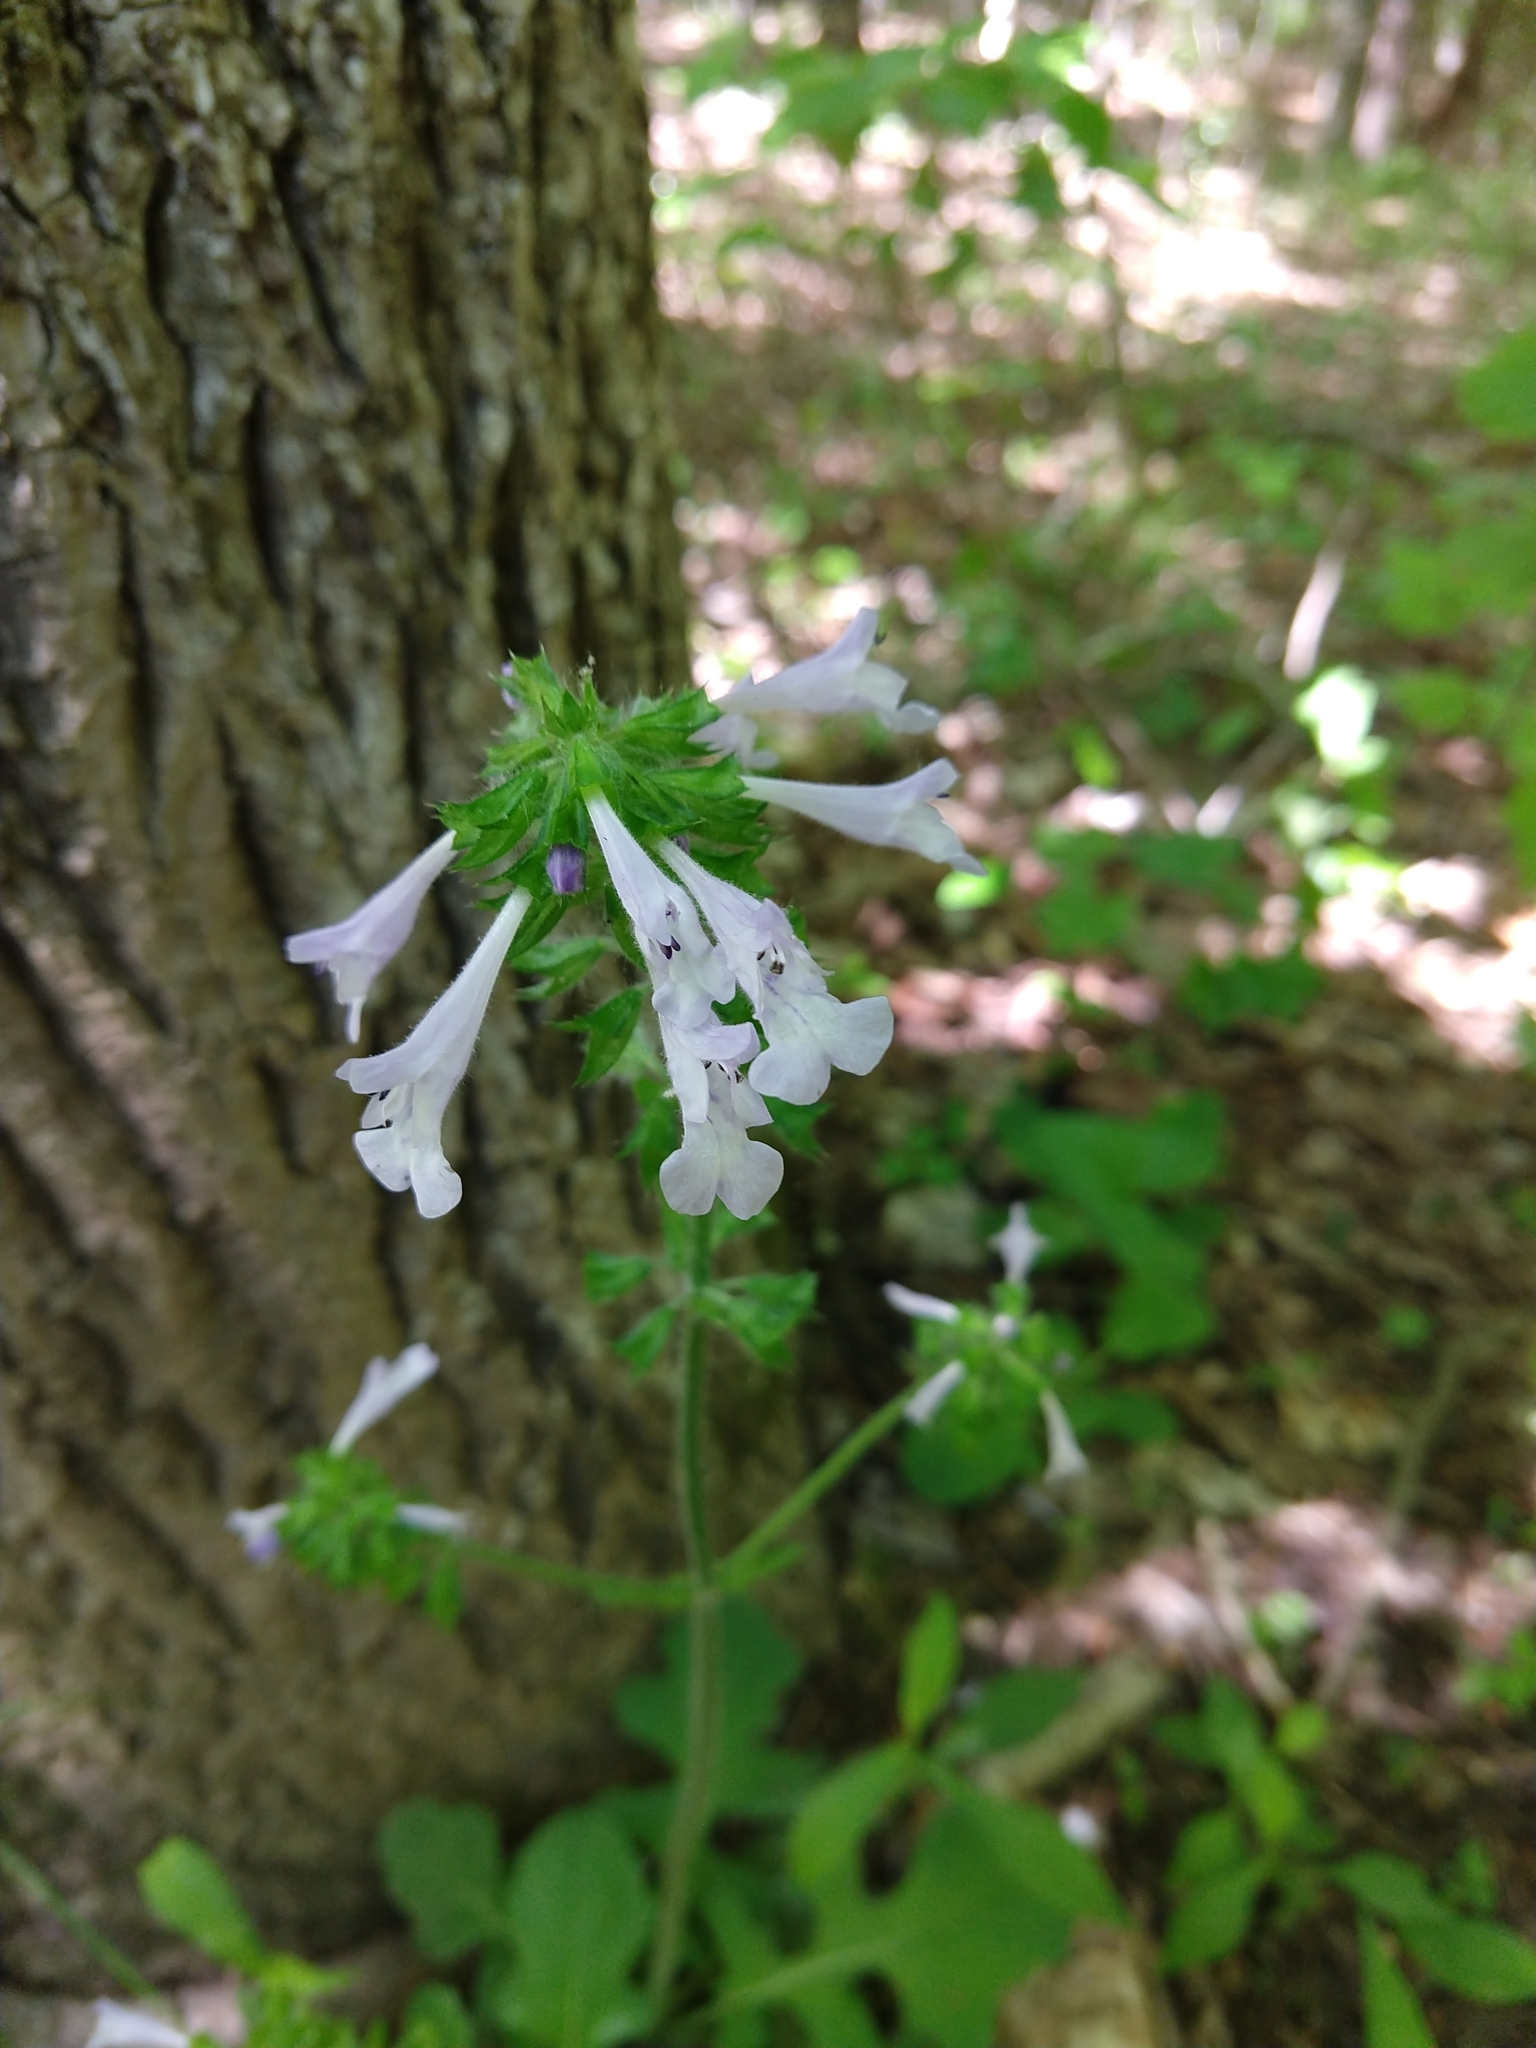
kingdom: Plantae
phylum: Tracheophyta
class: Magnoliopsida
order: Lamiales
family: Lamiaceae
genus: Salvia
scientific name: Salvia lyrata
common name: Cancerweed
